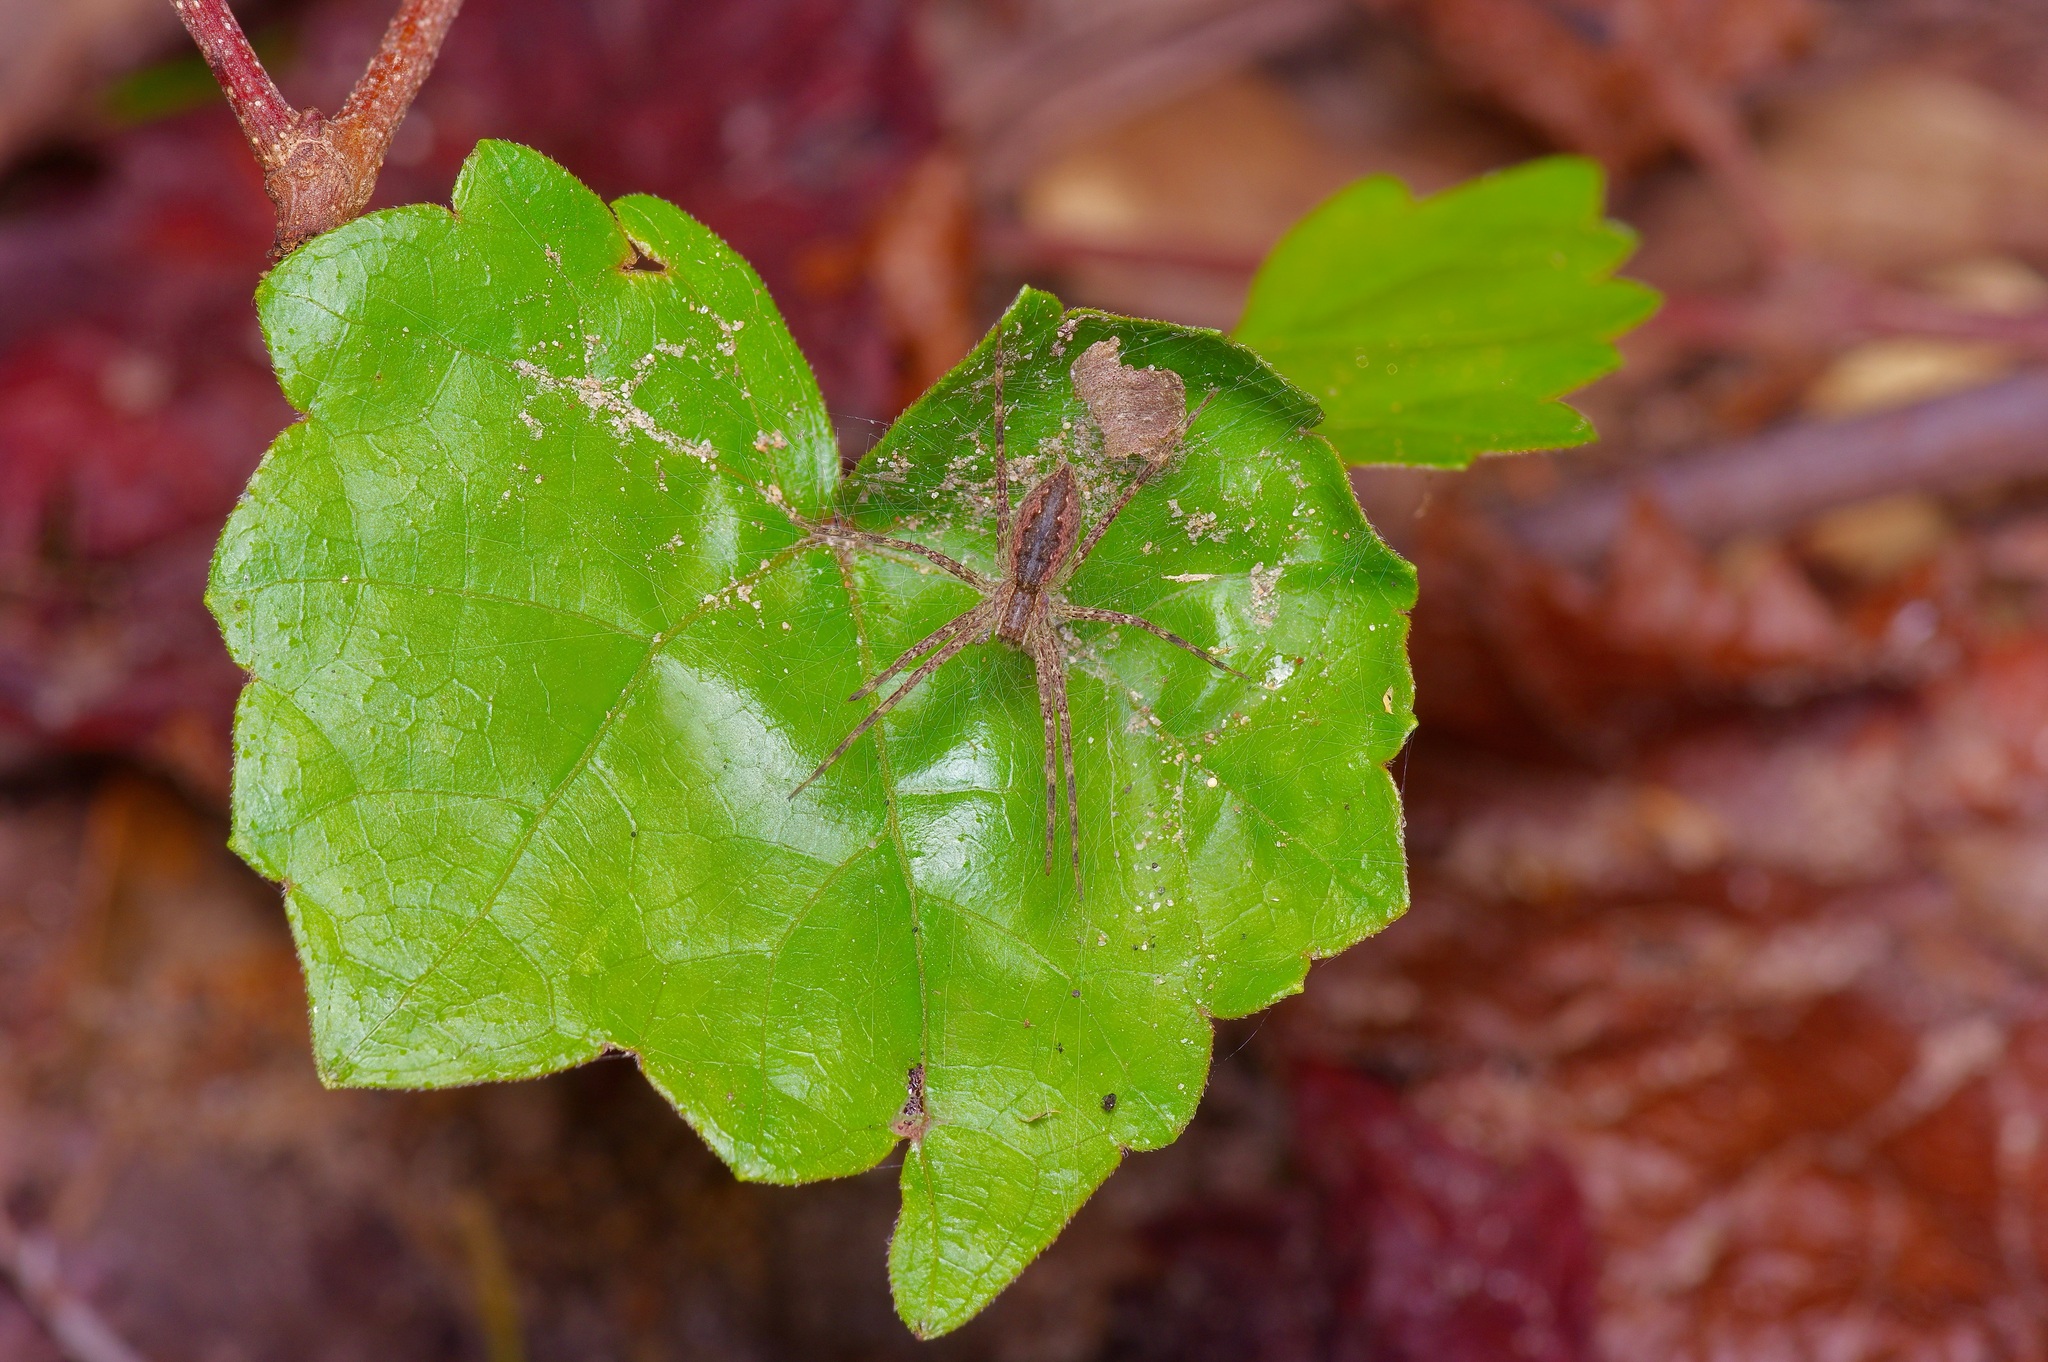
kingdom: Animalia
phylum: Arthropoda
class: Arachnida
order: Araneae
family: Pisauridae
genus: Pisaurina
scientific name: Pisaurina mira
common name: American nursery web spider
